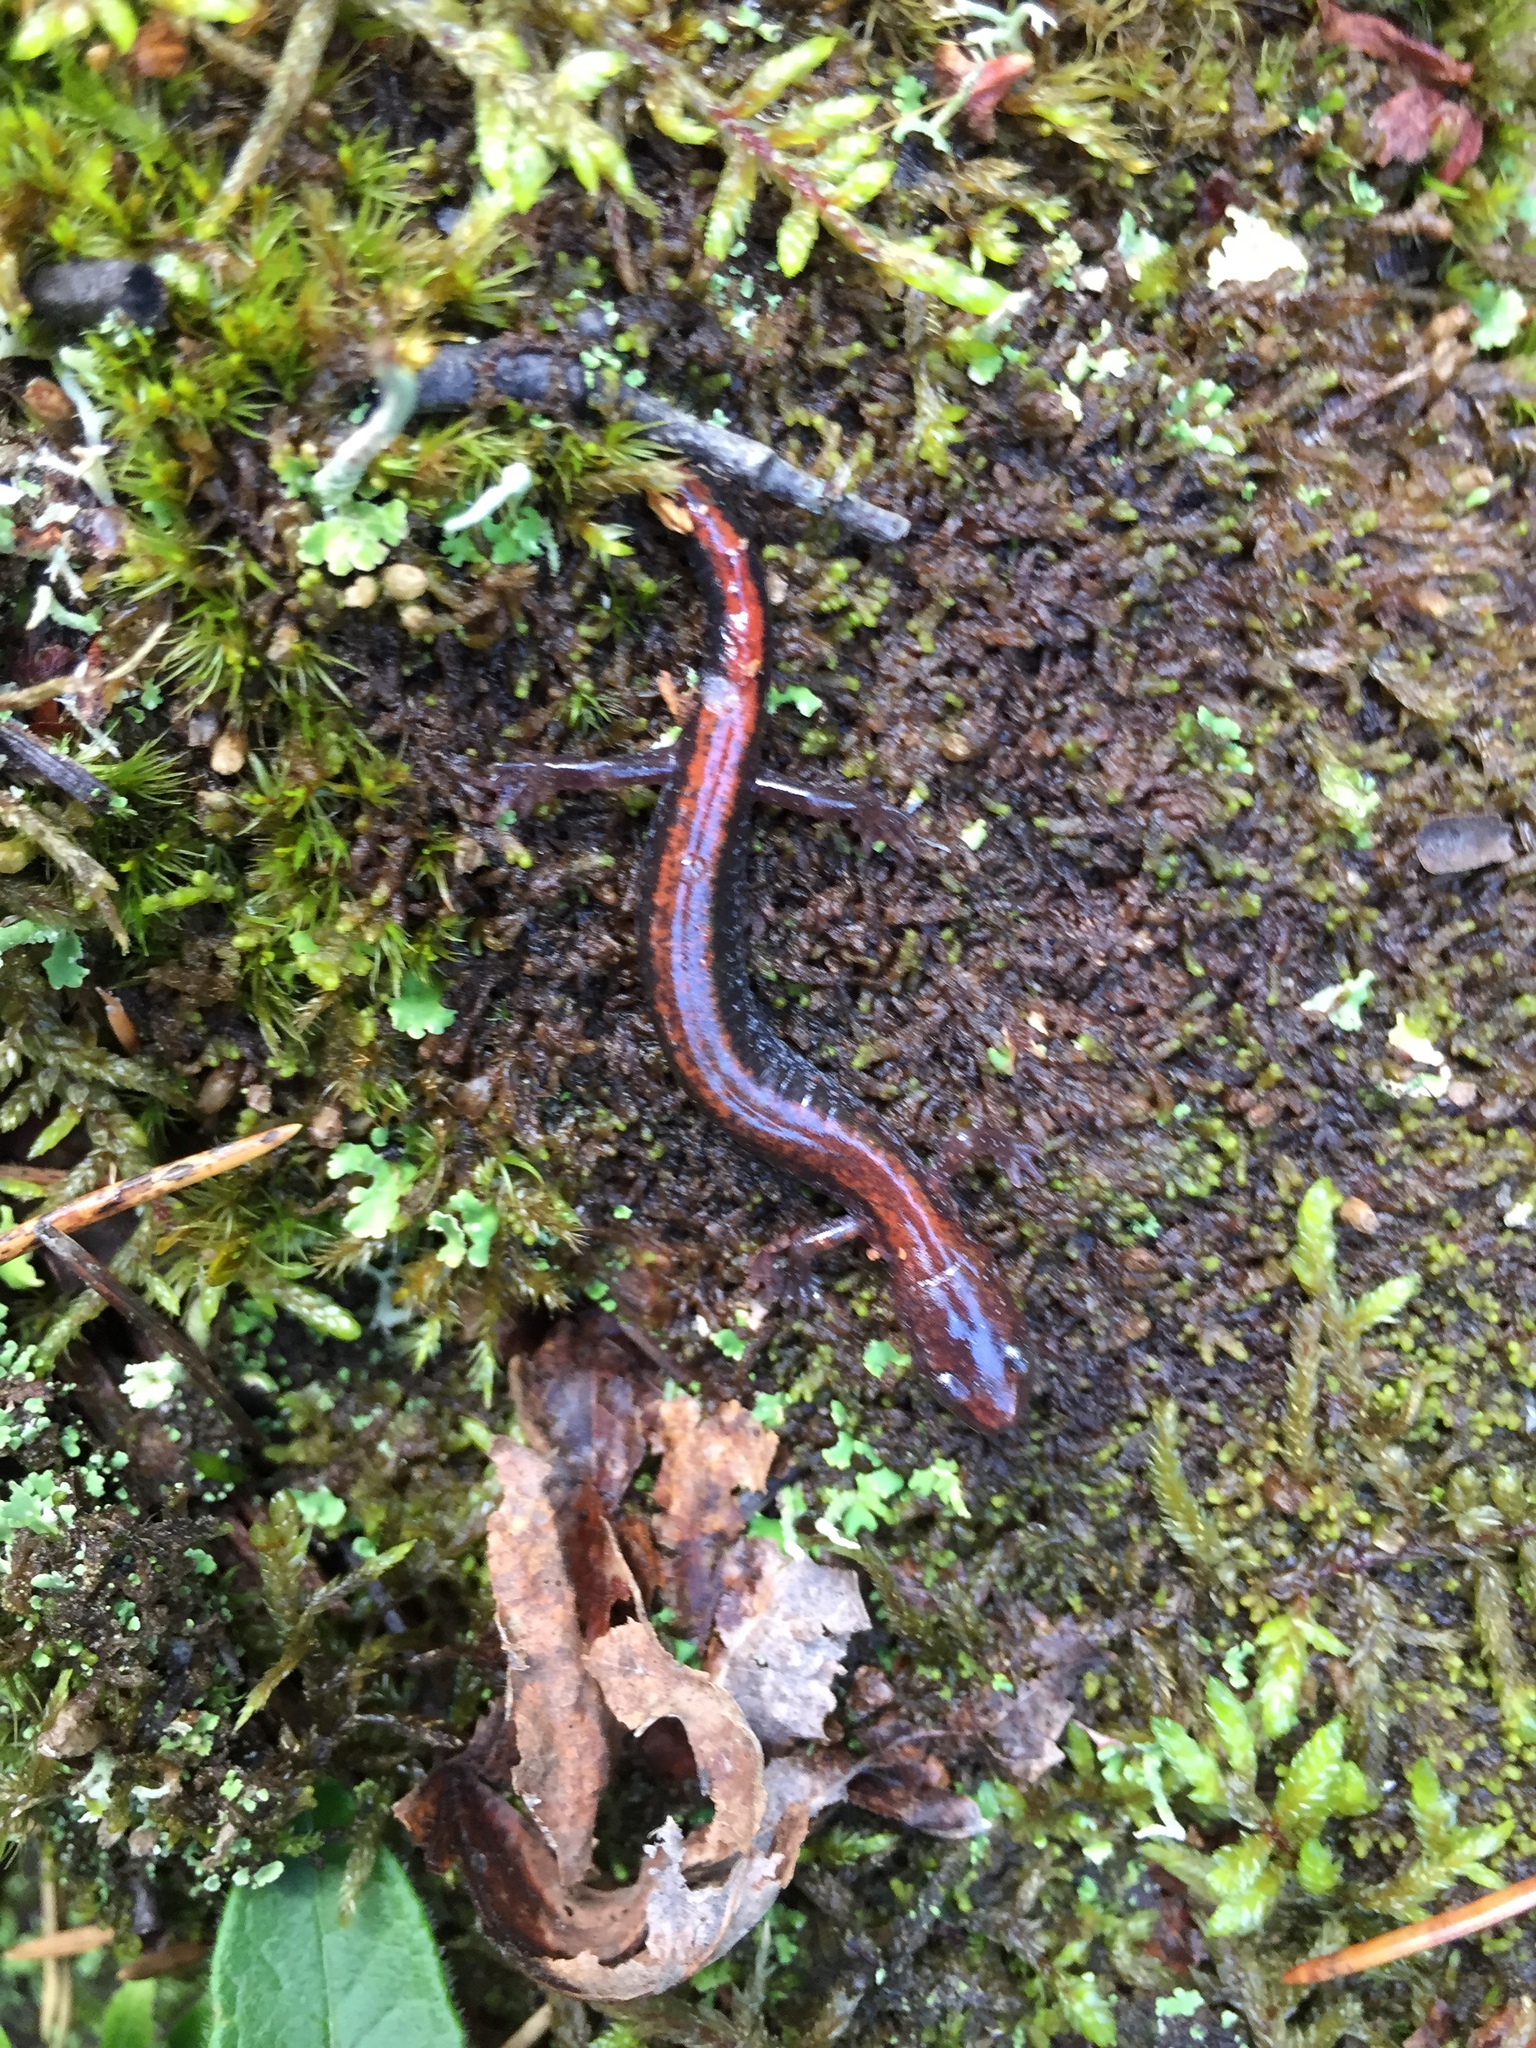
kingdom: Animalia
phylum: Chordata
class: Amphibia
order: Caudata
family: Plethodontidae
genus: Plethodon
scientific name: Plethodon cinereus
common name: Redback salamander
